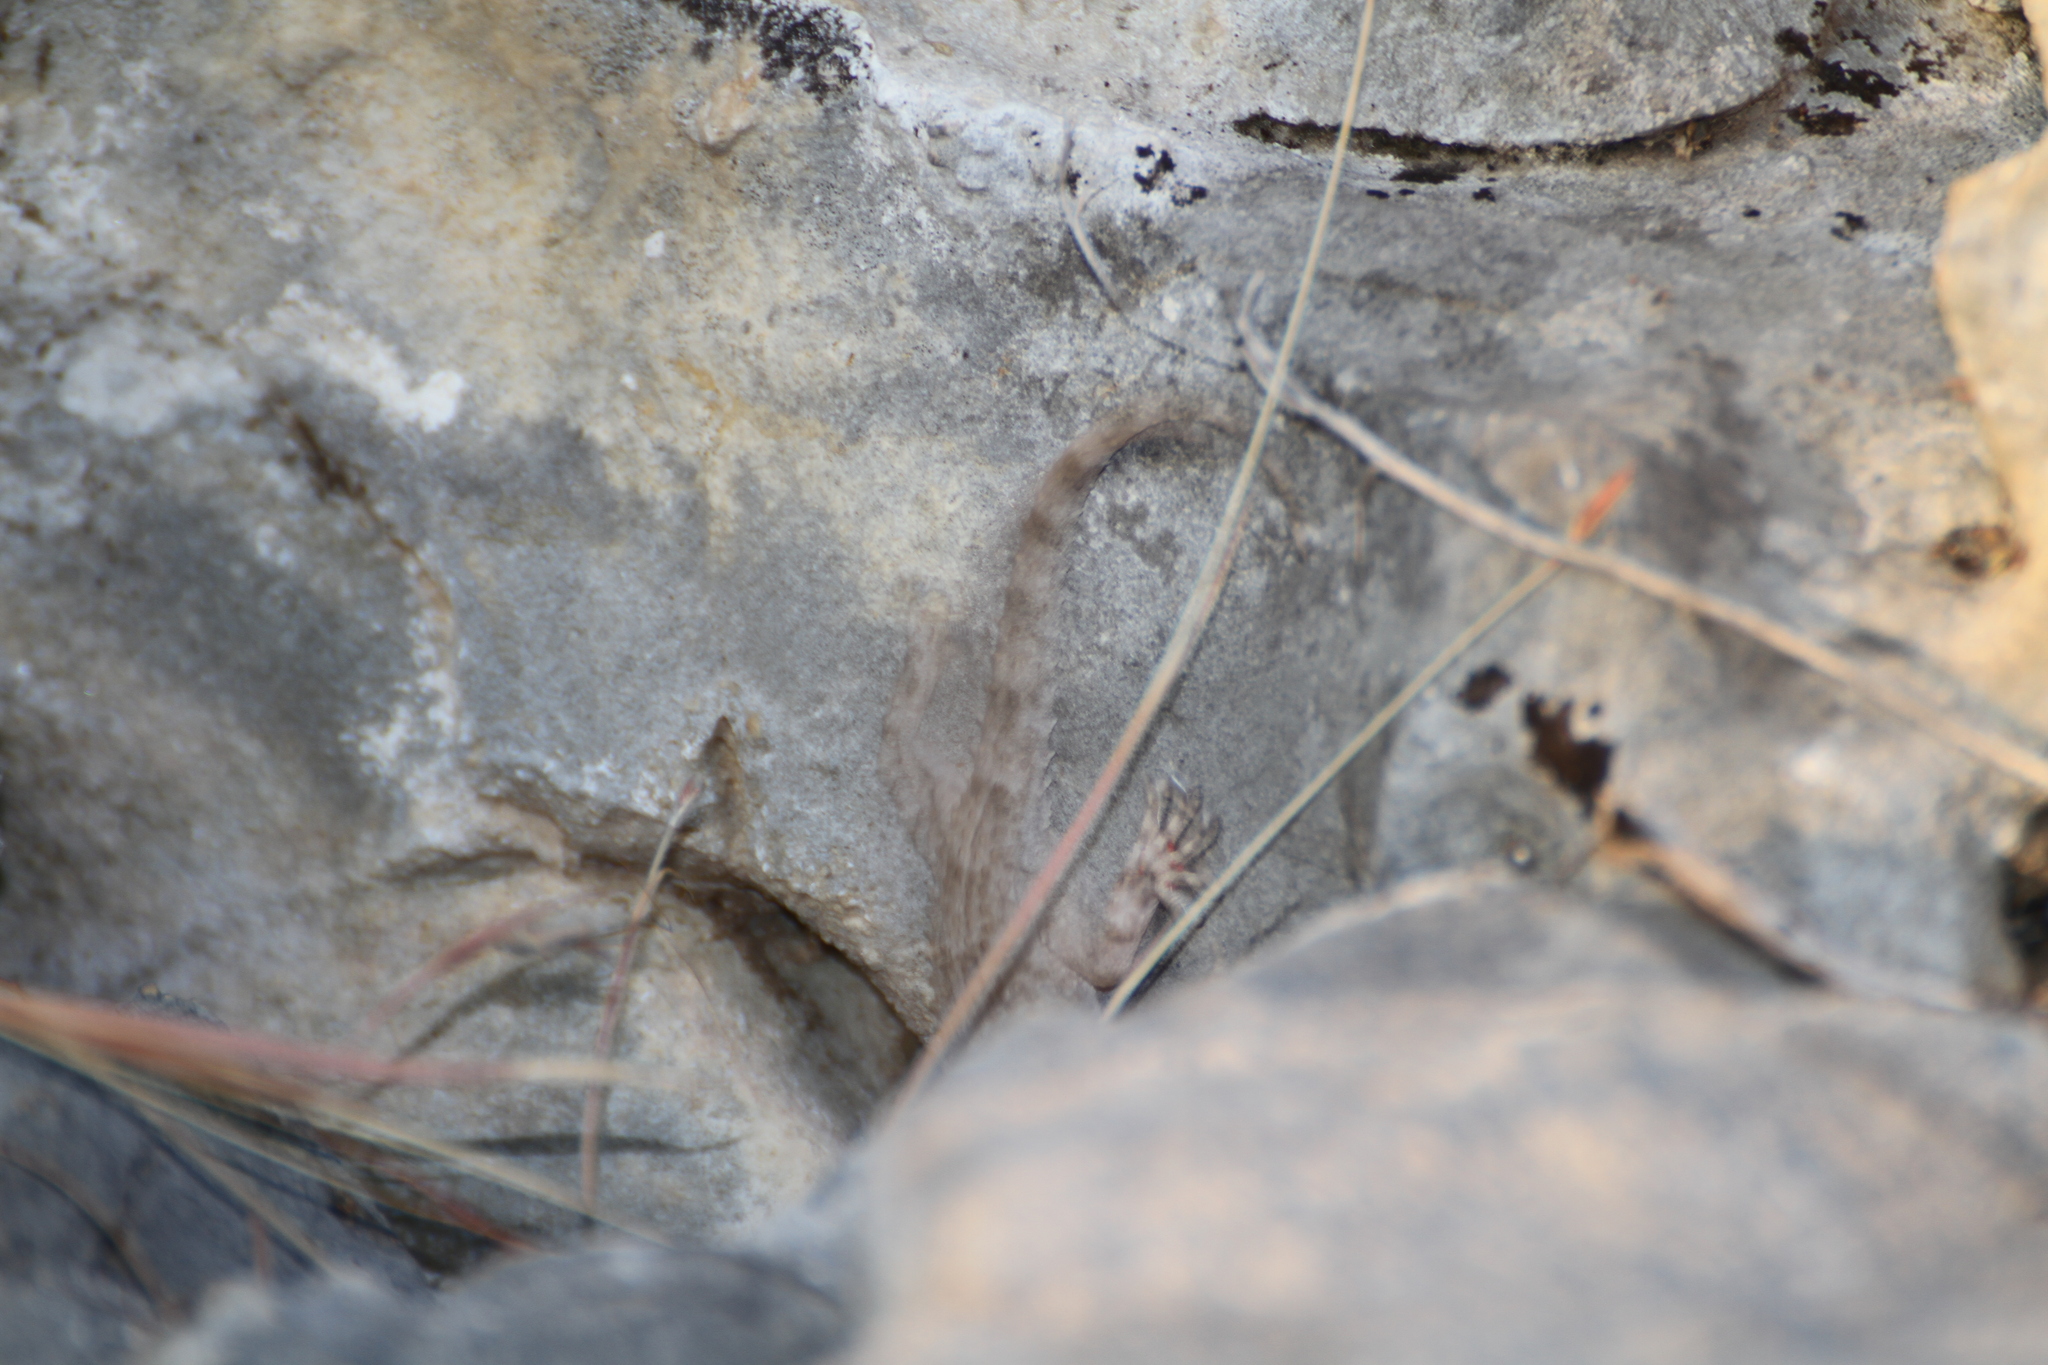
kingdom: Animalia
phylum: Chordata
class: Squamata
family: Phyllodactylidae
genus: Tarentola
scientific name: Tarentola mauritanica
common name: Moorish gecko
